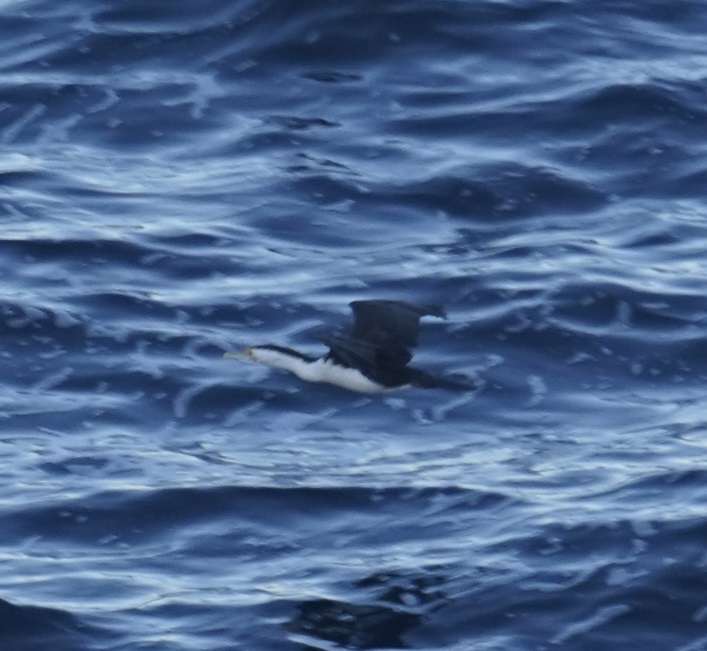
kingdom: Animalia
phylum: Chordata
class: Aves
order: Suliformes
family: Phalacrocoracidae
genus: Phalacrocorax
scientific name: Phalacrocorax varius
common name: Pied cormorant
